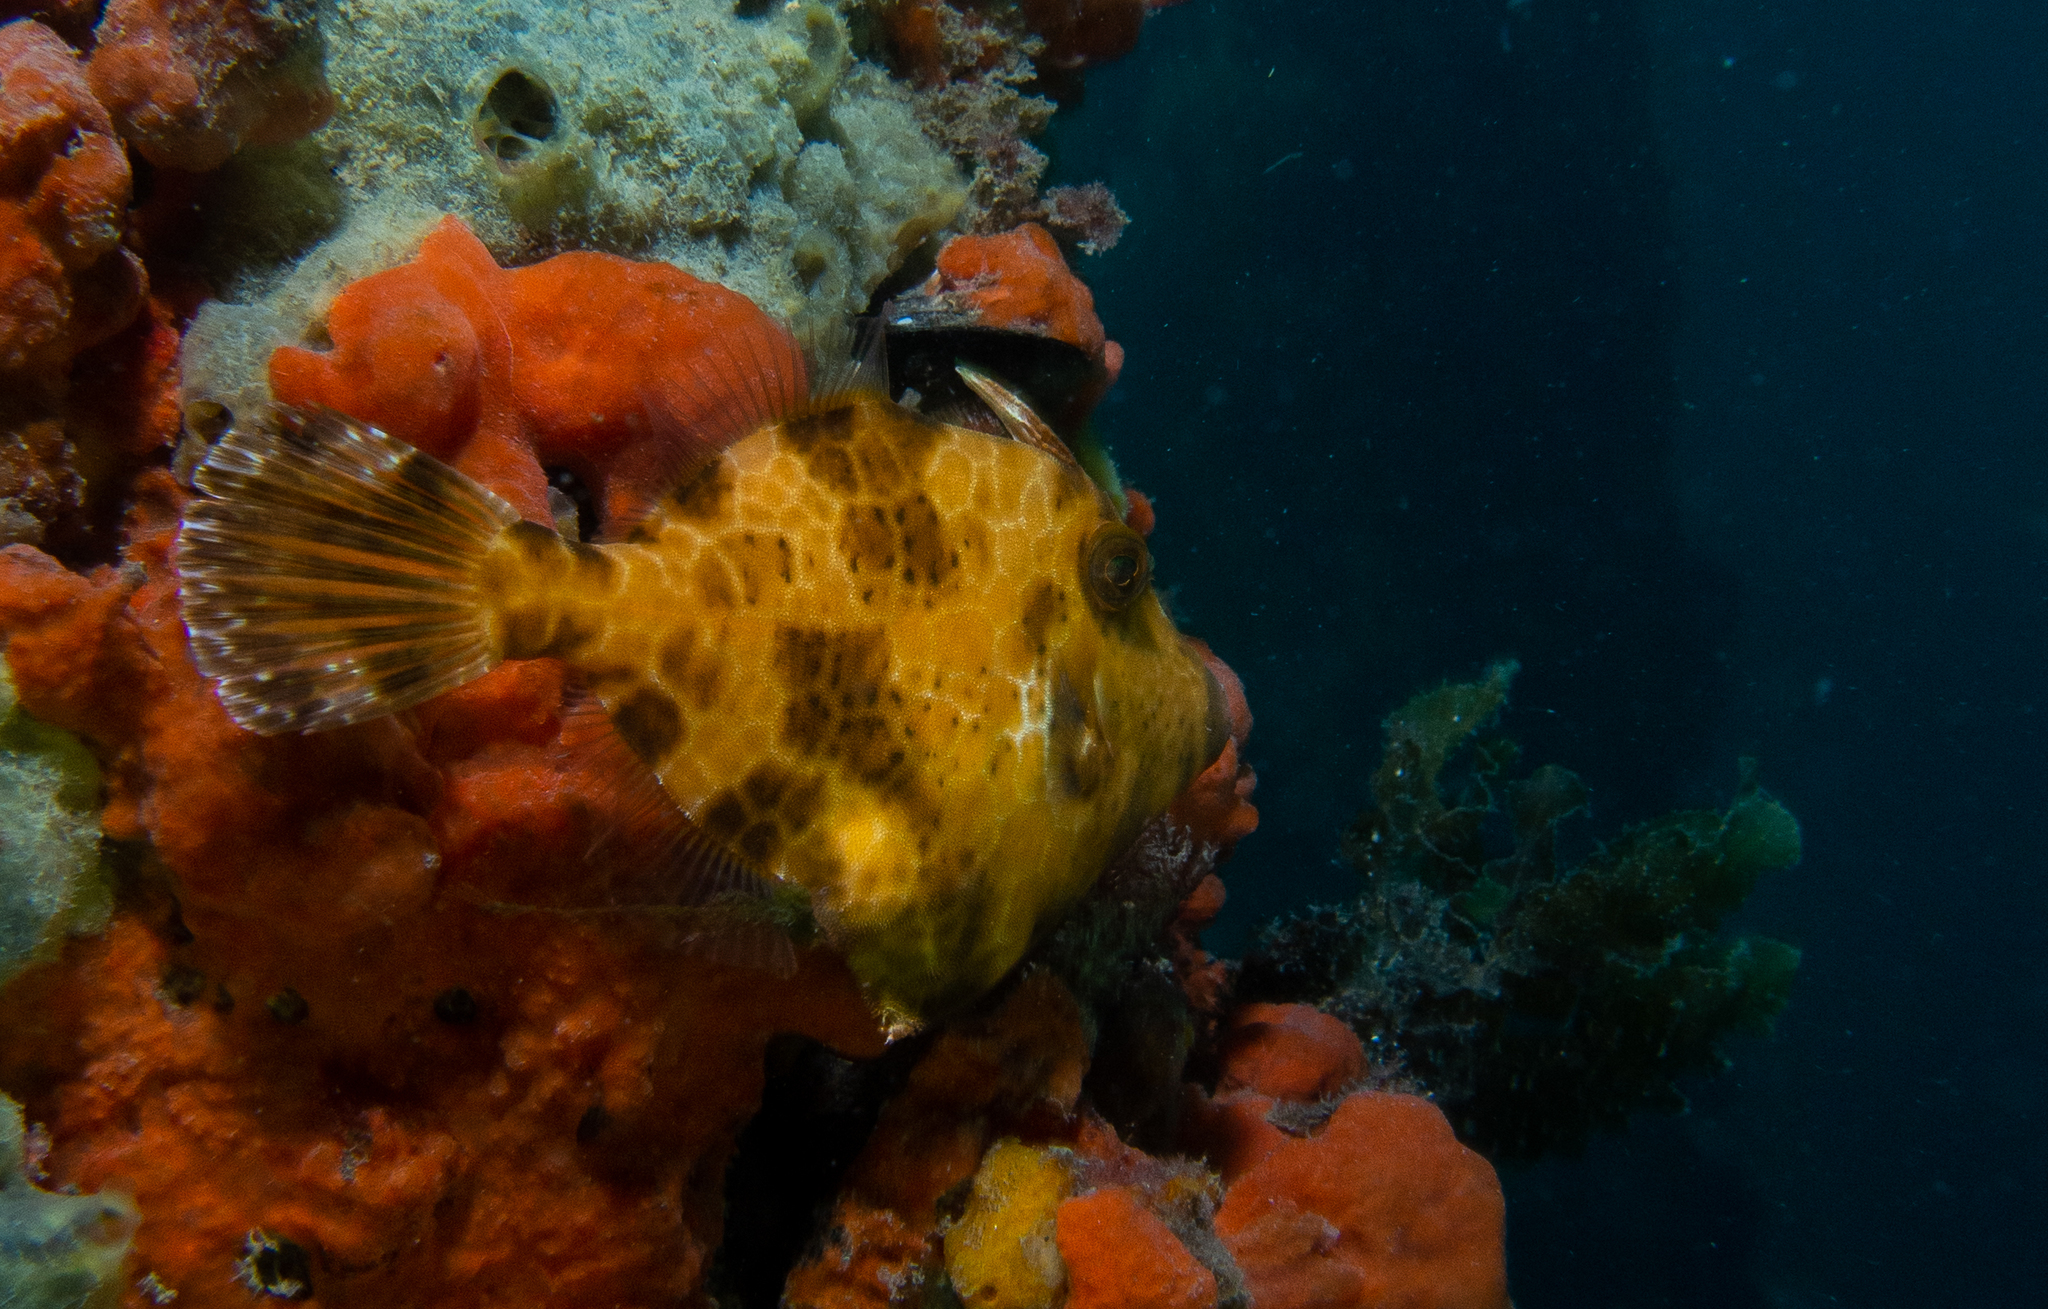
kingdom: Animalia
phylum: Chordata
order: Tetraodontiformes
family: Monacanthidae
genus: Eubalichthys
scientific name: Eubalichthys gunnii
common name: Gunn's leatherjacket
